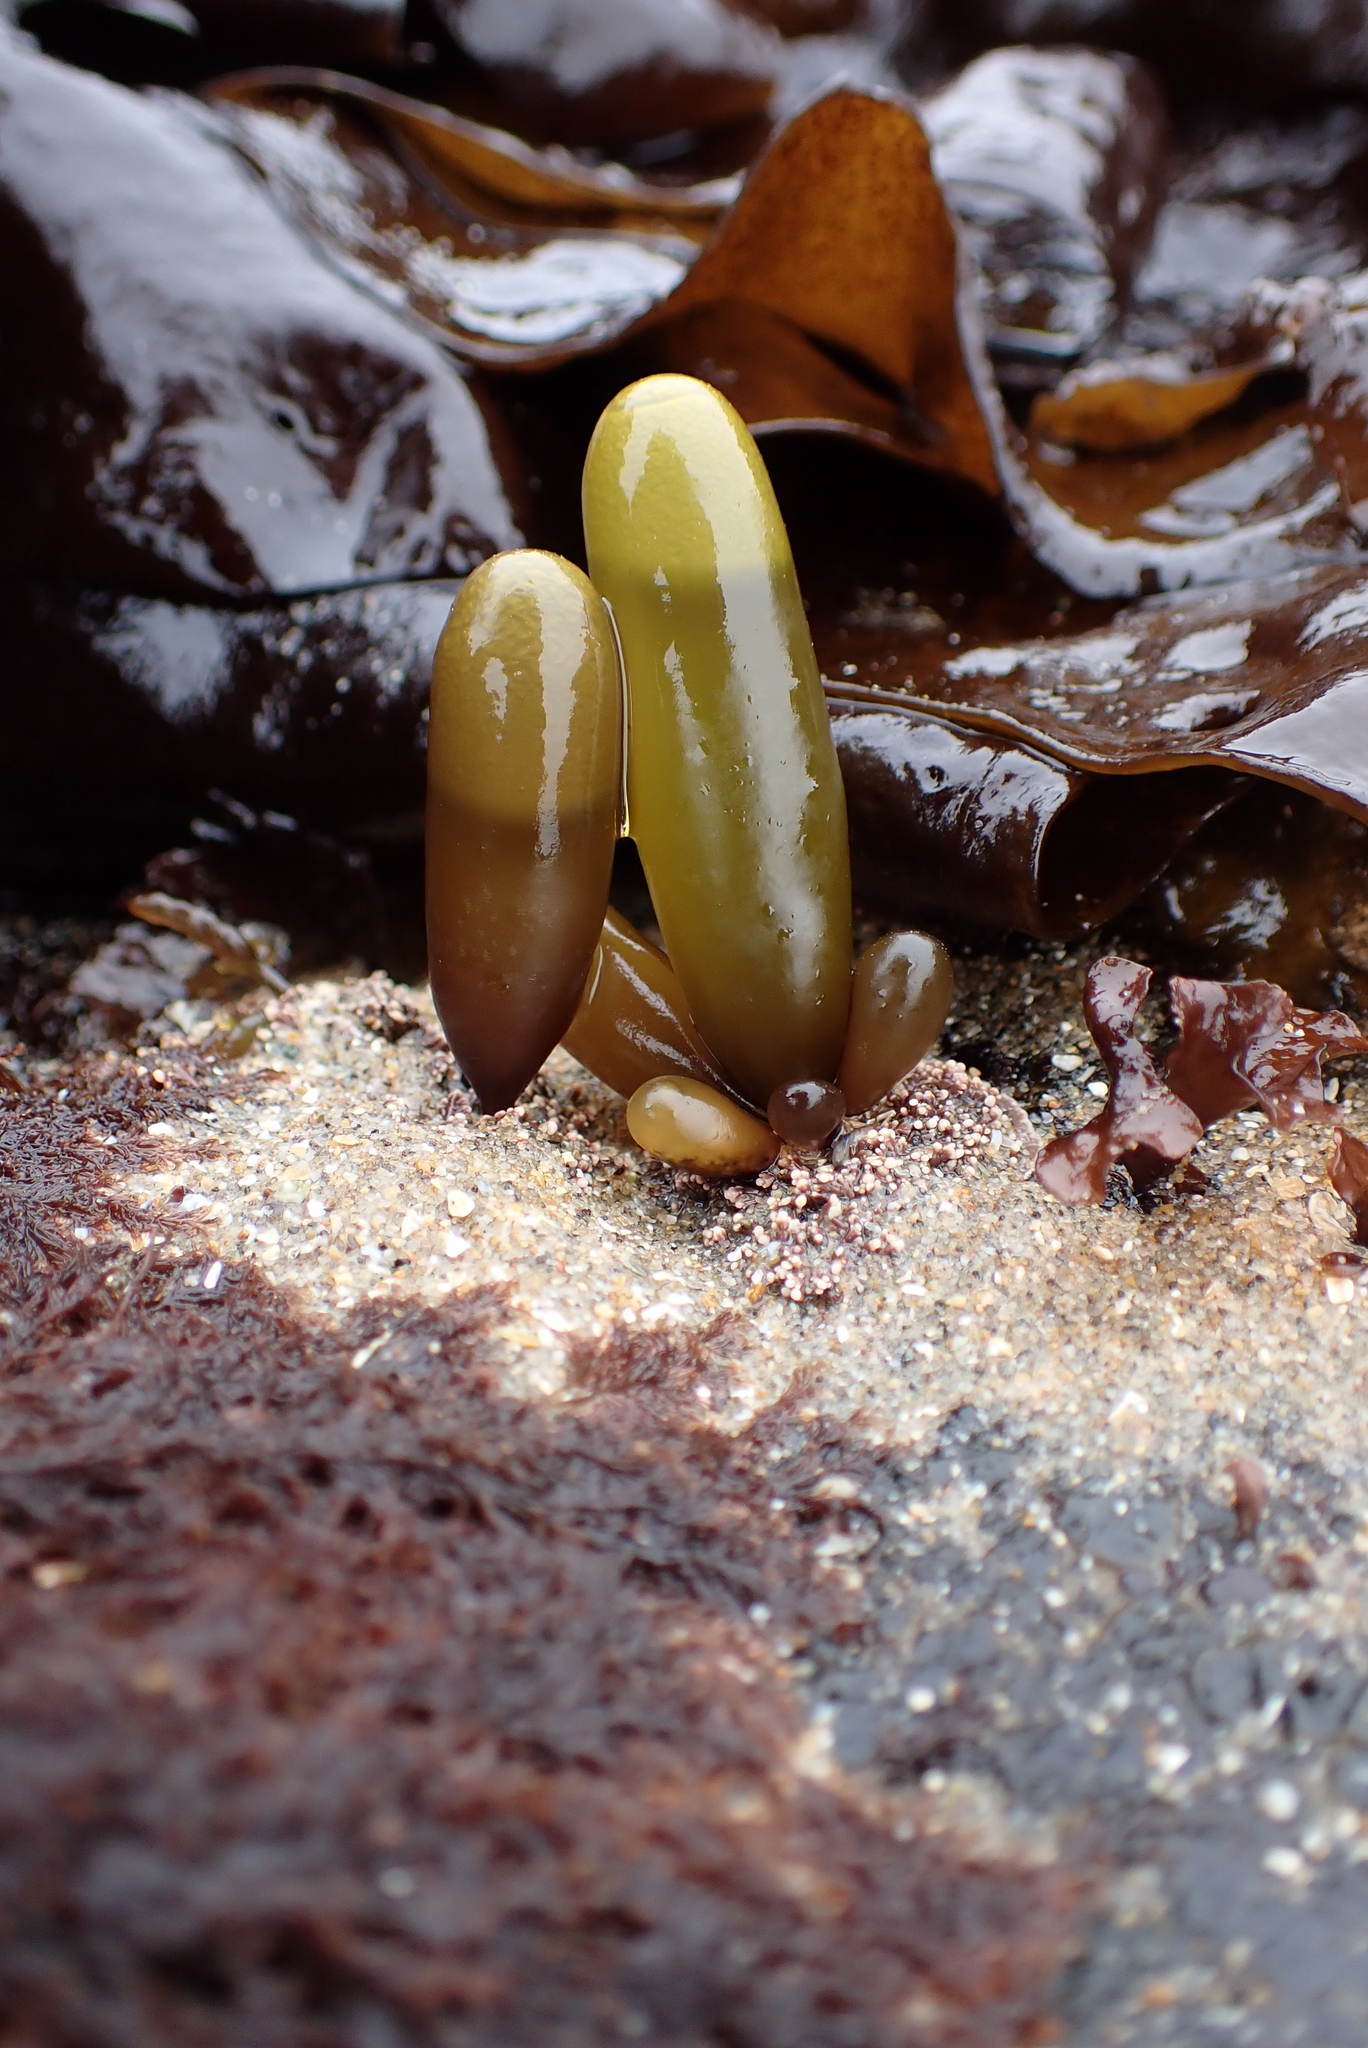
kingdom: Plantae
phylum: Rhodophyta
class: Florideophyceae
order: Palmariales
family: Palmariaceae
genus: Halosaccion
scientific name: Halosaccion glandiforme
